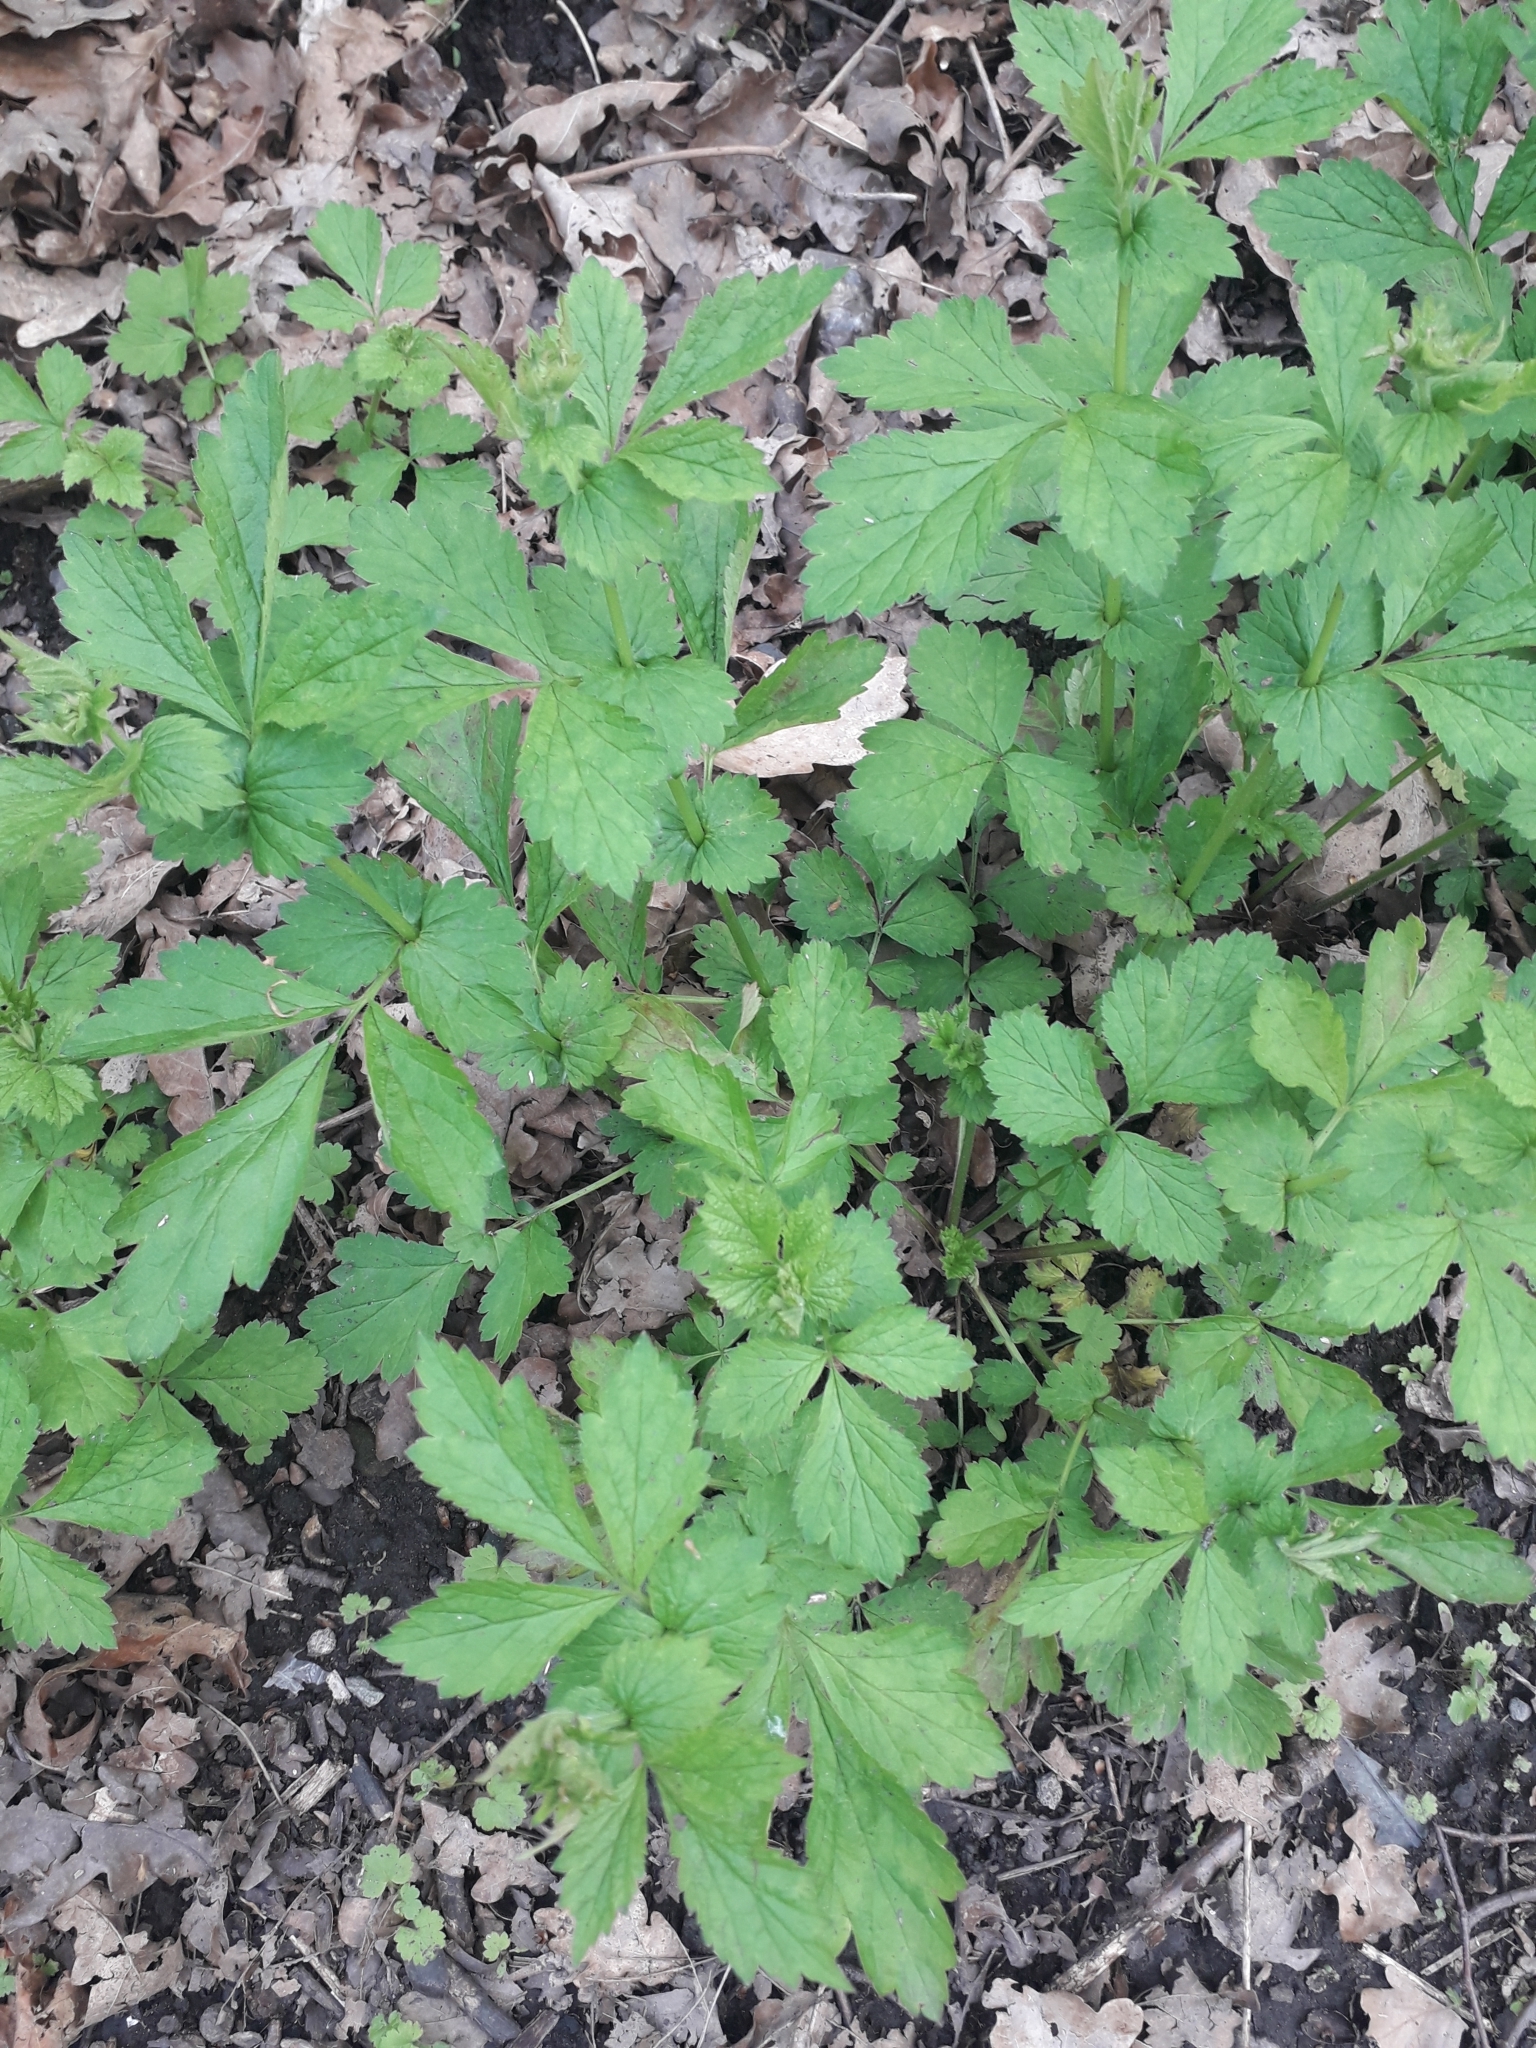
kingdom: Plantae
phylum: Tracheophyta
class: Magnoliopsida
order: Rosales
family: Rosaceae
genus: Geum
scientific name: Geum urbanum
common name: Wood avens
